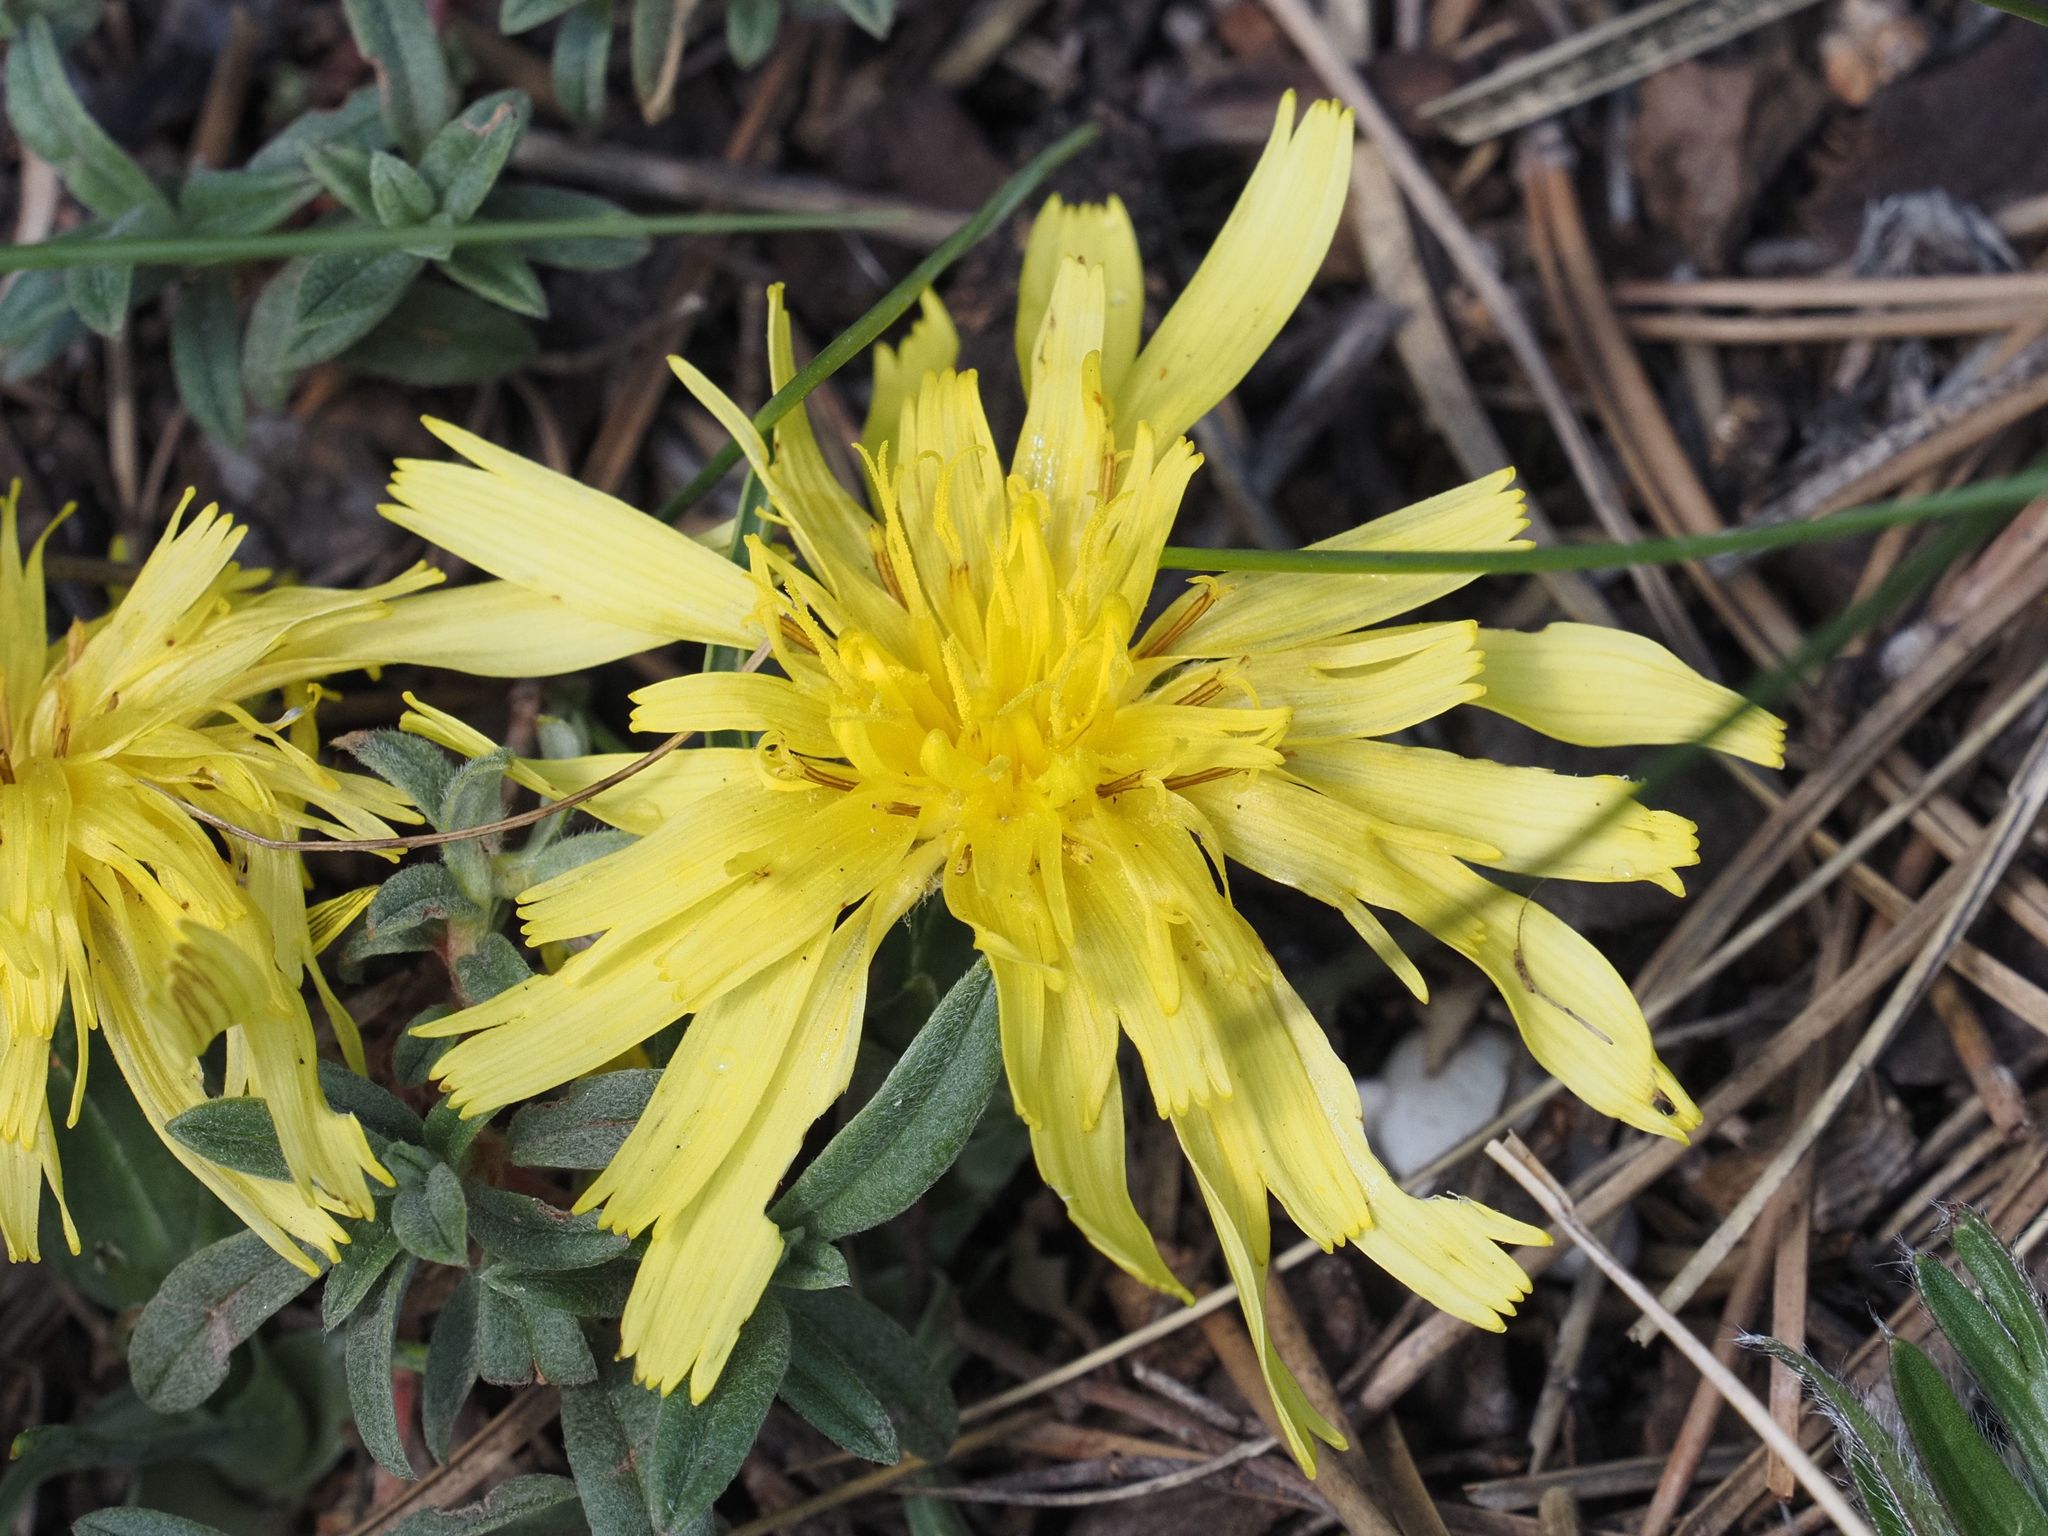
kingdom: Plantae
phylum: Tracheophyta
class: Magnoliopsida
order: Asterales
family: Asteraceae
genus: Takhtajaniantha
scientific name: Takhtajaniantha austriaca
